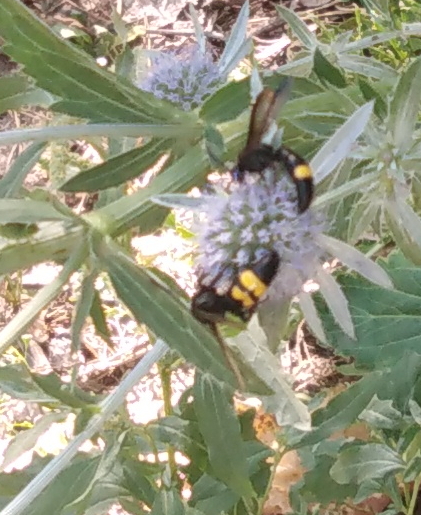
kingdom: Animalia
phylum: Arthropoda
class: Insecta
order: Hymenoptera
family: Scoliidae
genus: Scolia
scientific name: Scolia hirta
